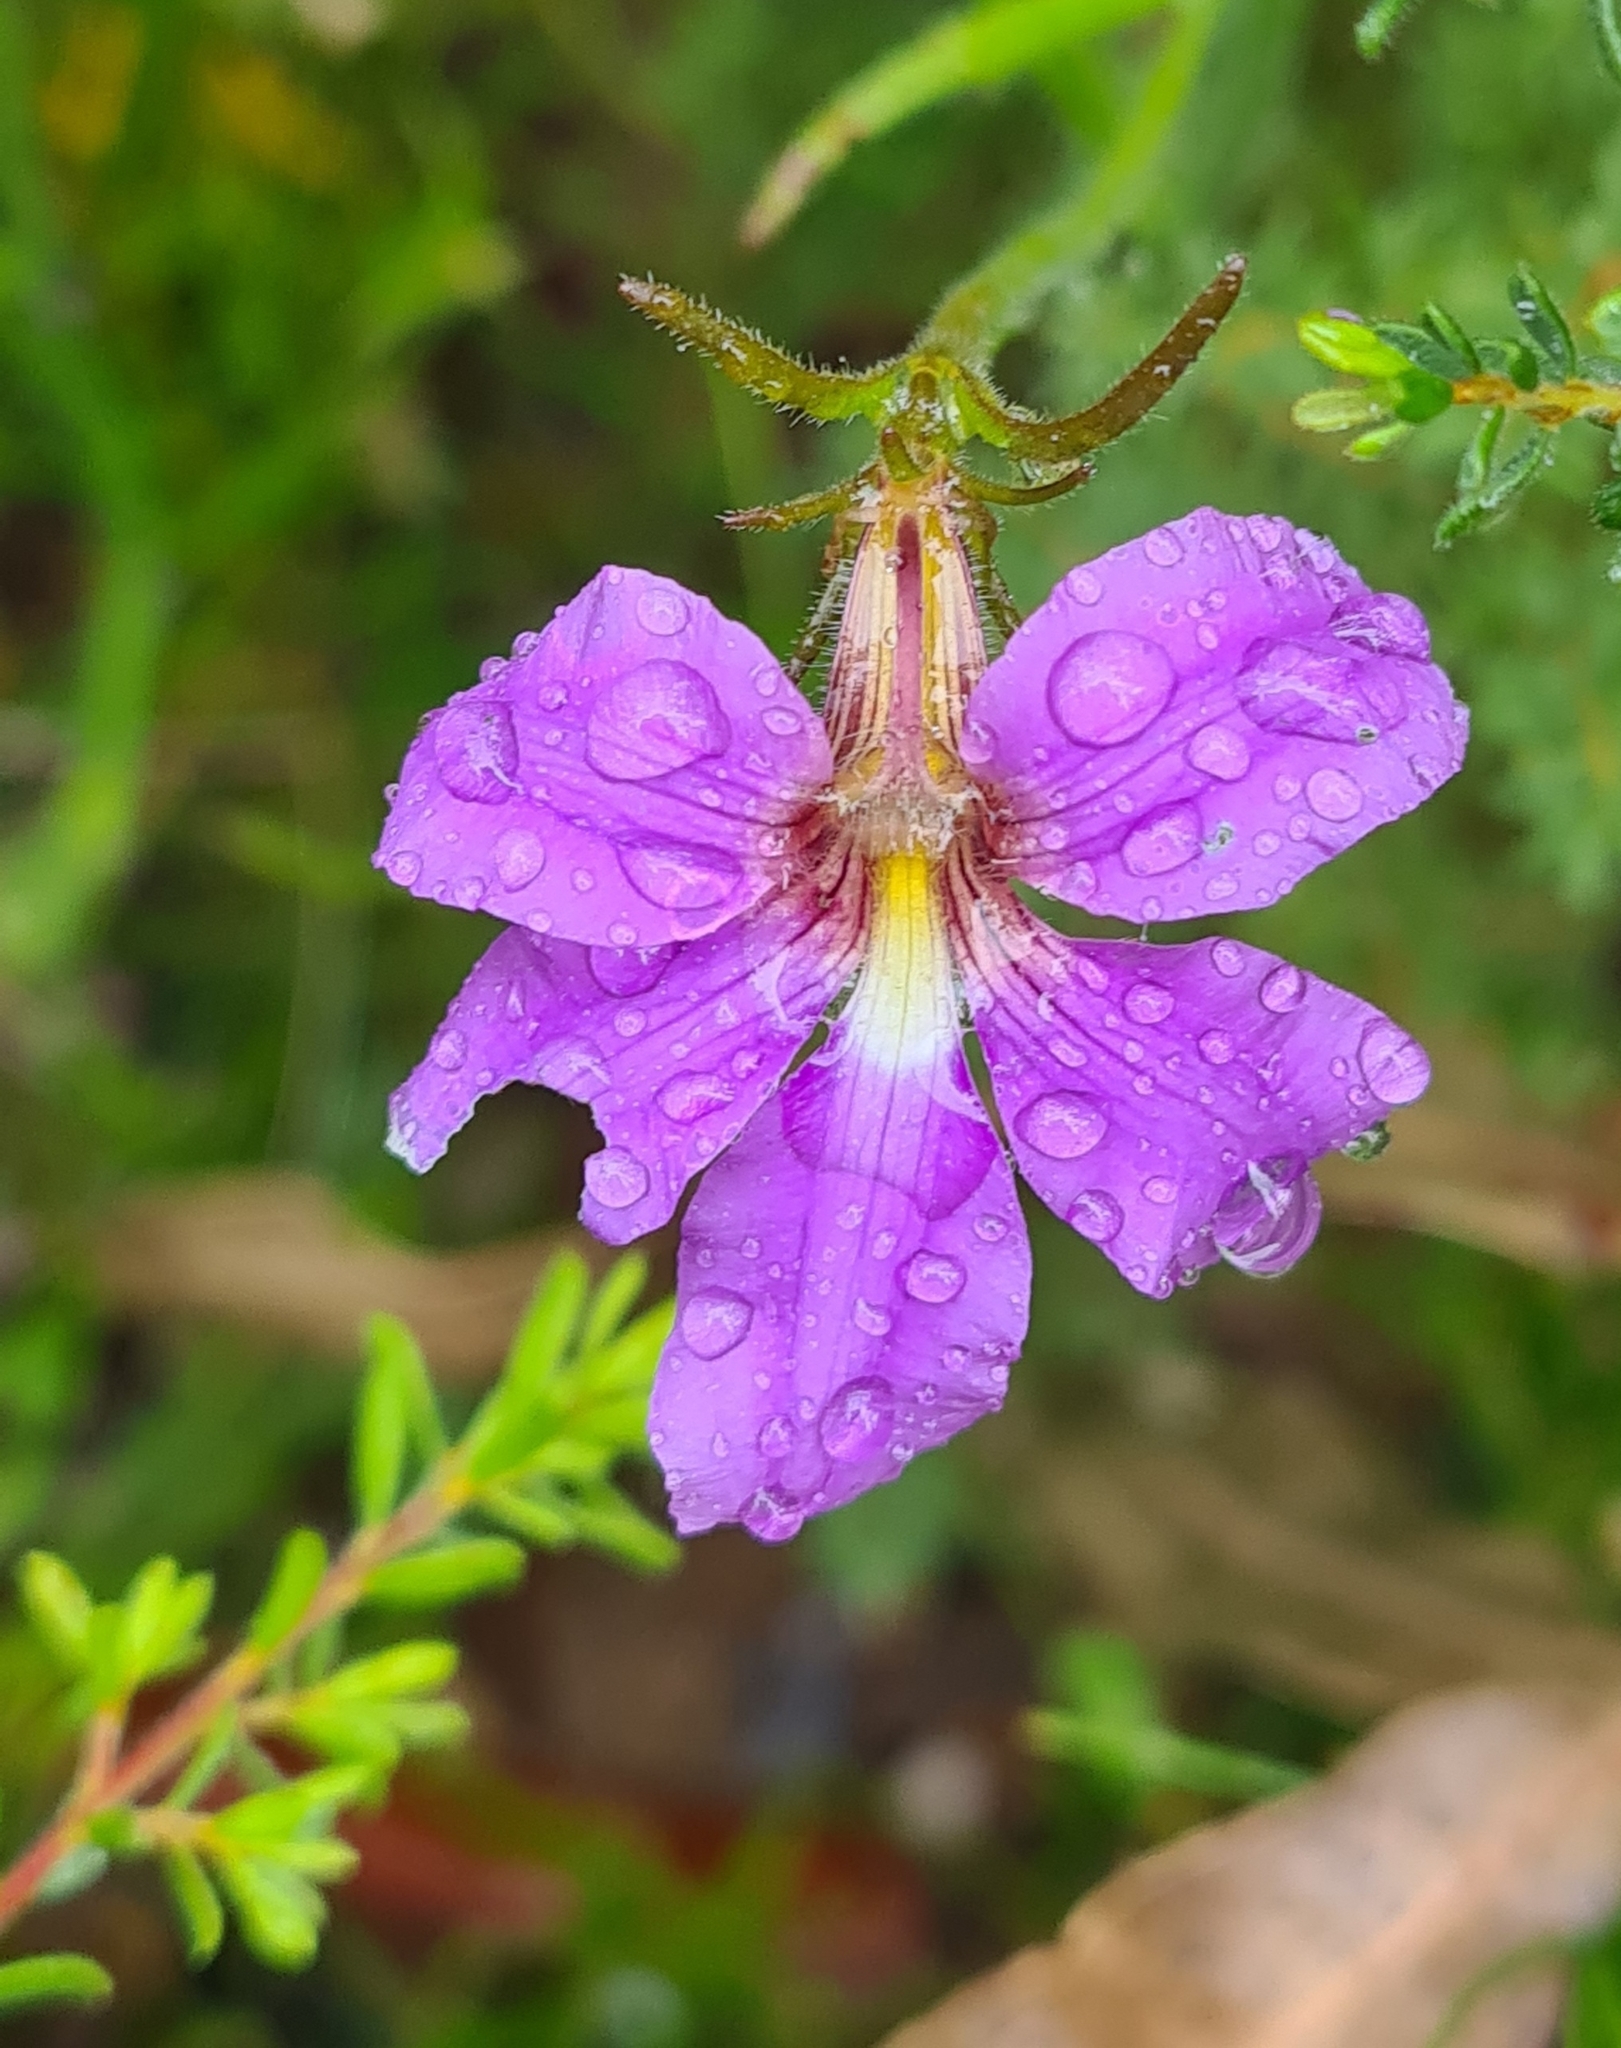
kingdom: Plantae
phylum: Tracheophyta
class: Magnoliopsida
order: Asterales
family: Goodeniaceae
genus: Scaevola
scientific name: Scaevola ramosissima
